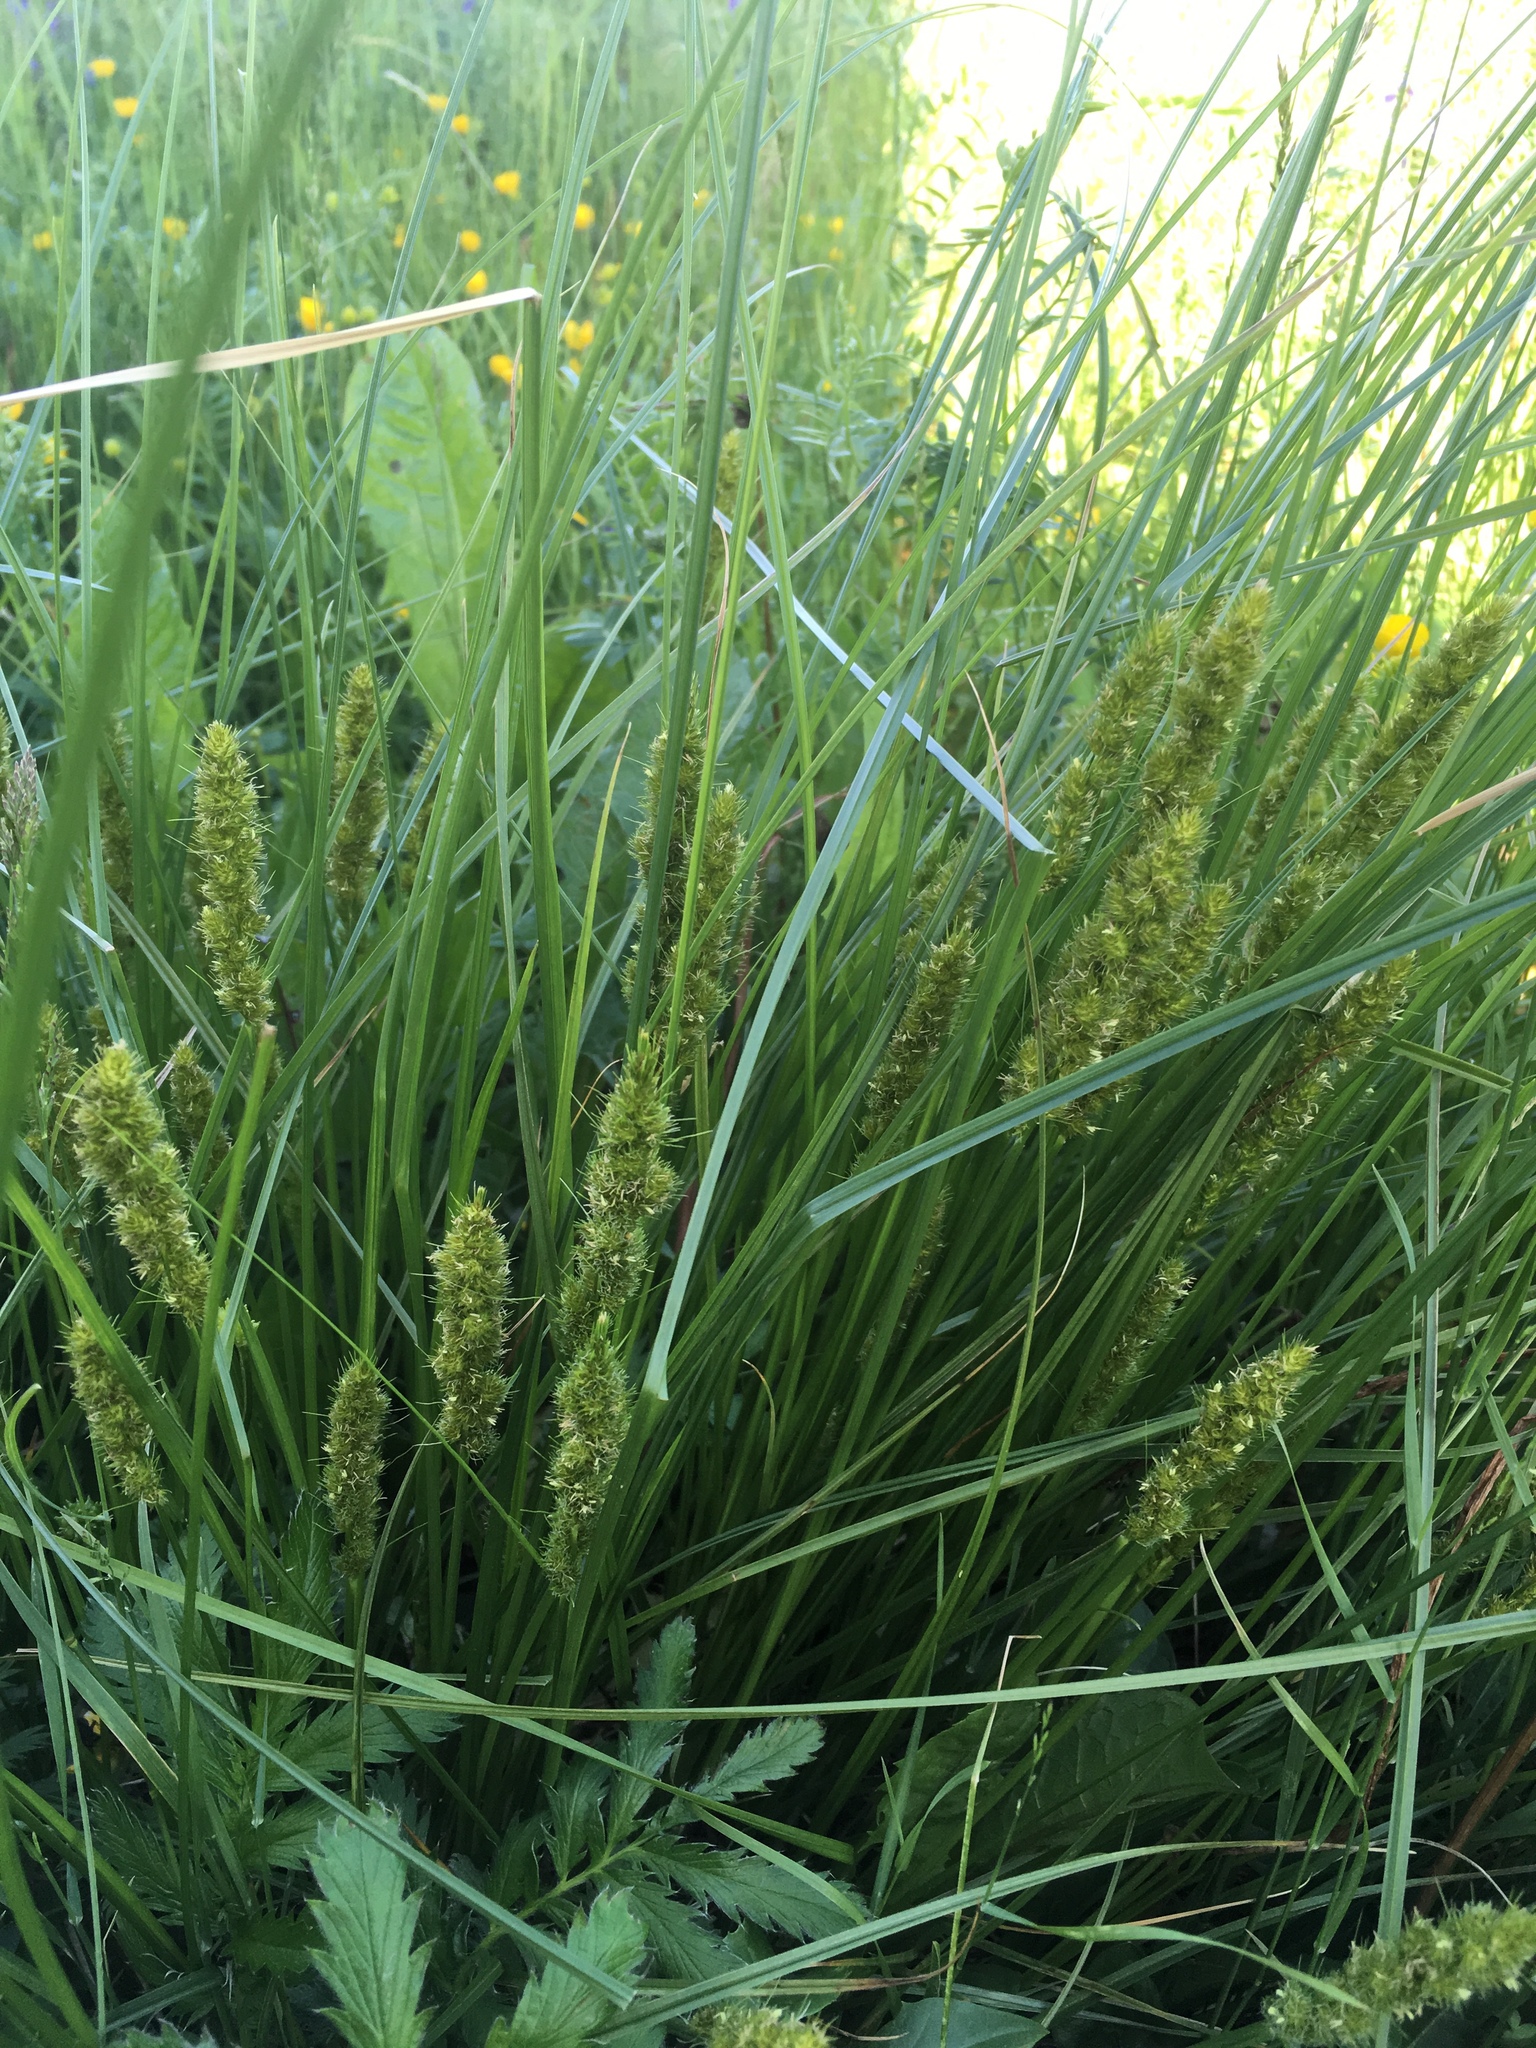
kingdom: Plantae
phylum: Tracheophyta
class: Liliopsida
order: Poales
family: Cyperaceae
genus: Carex
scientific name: Carex vulpinoidea
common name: American fox-sedge
